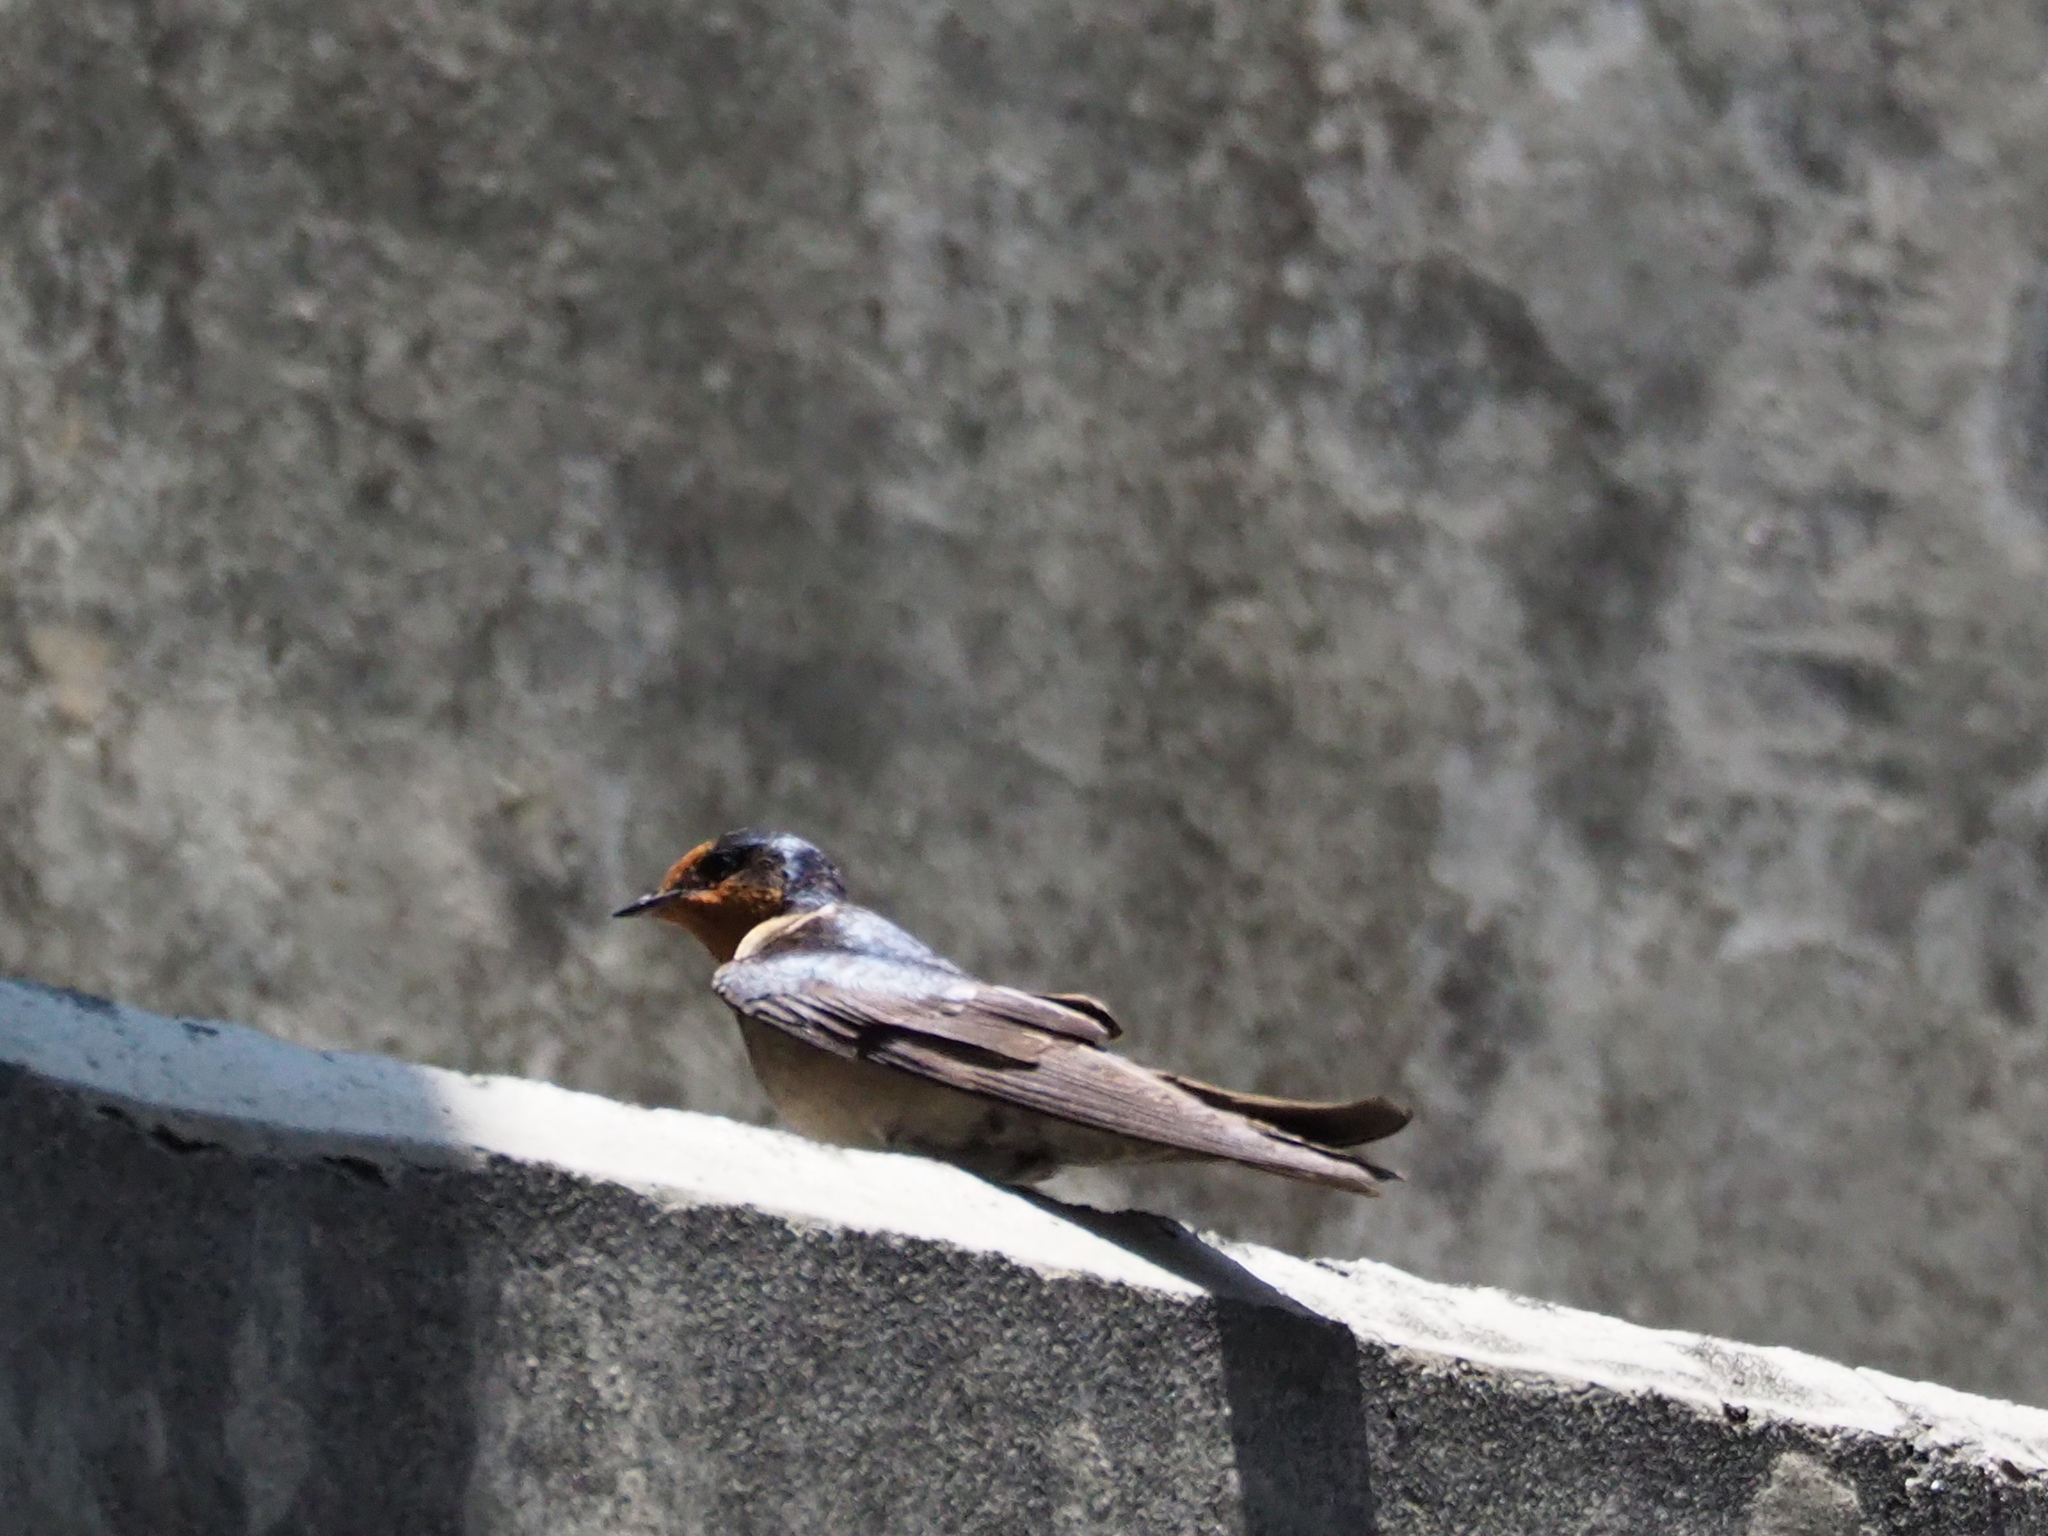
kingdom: Animalia
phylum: Chordata
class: Aves
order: Passeriformes
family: Hirundinidae
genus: Hirundo
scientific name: Hirundo tahitica
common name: Pacific swallow
